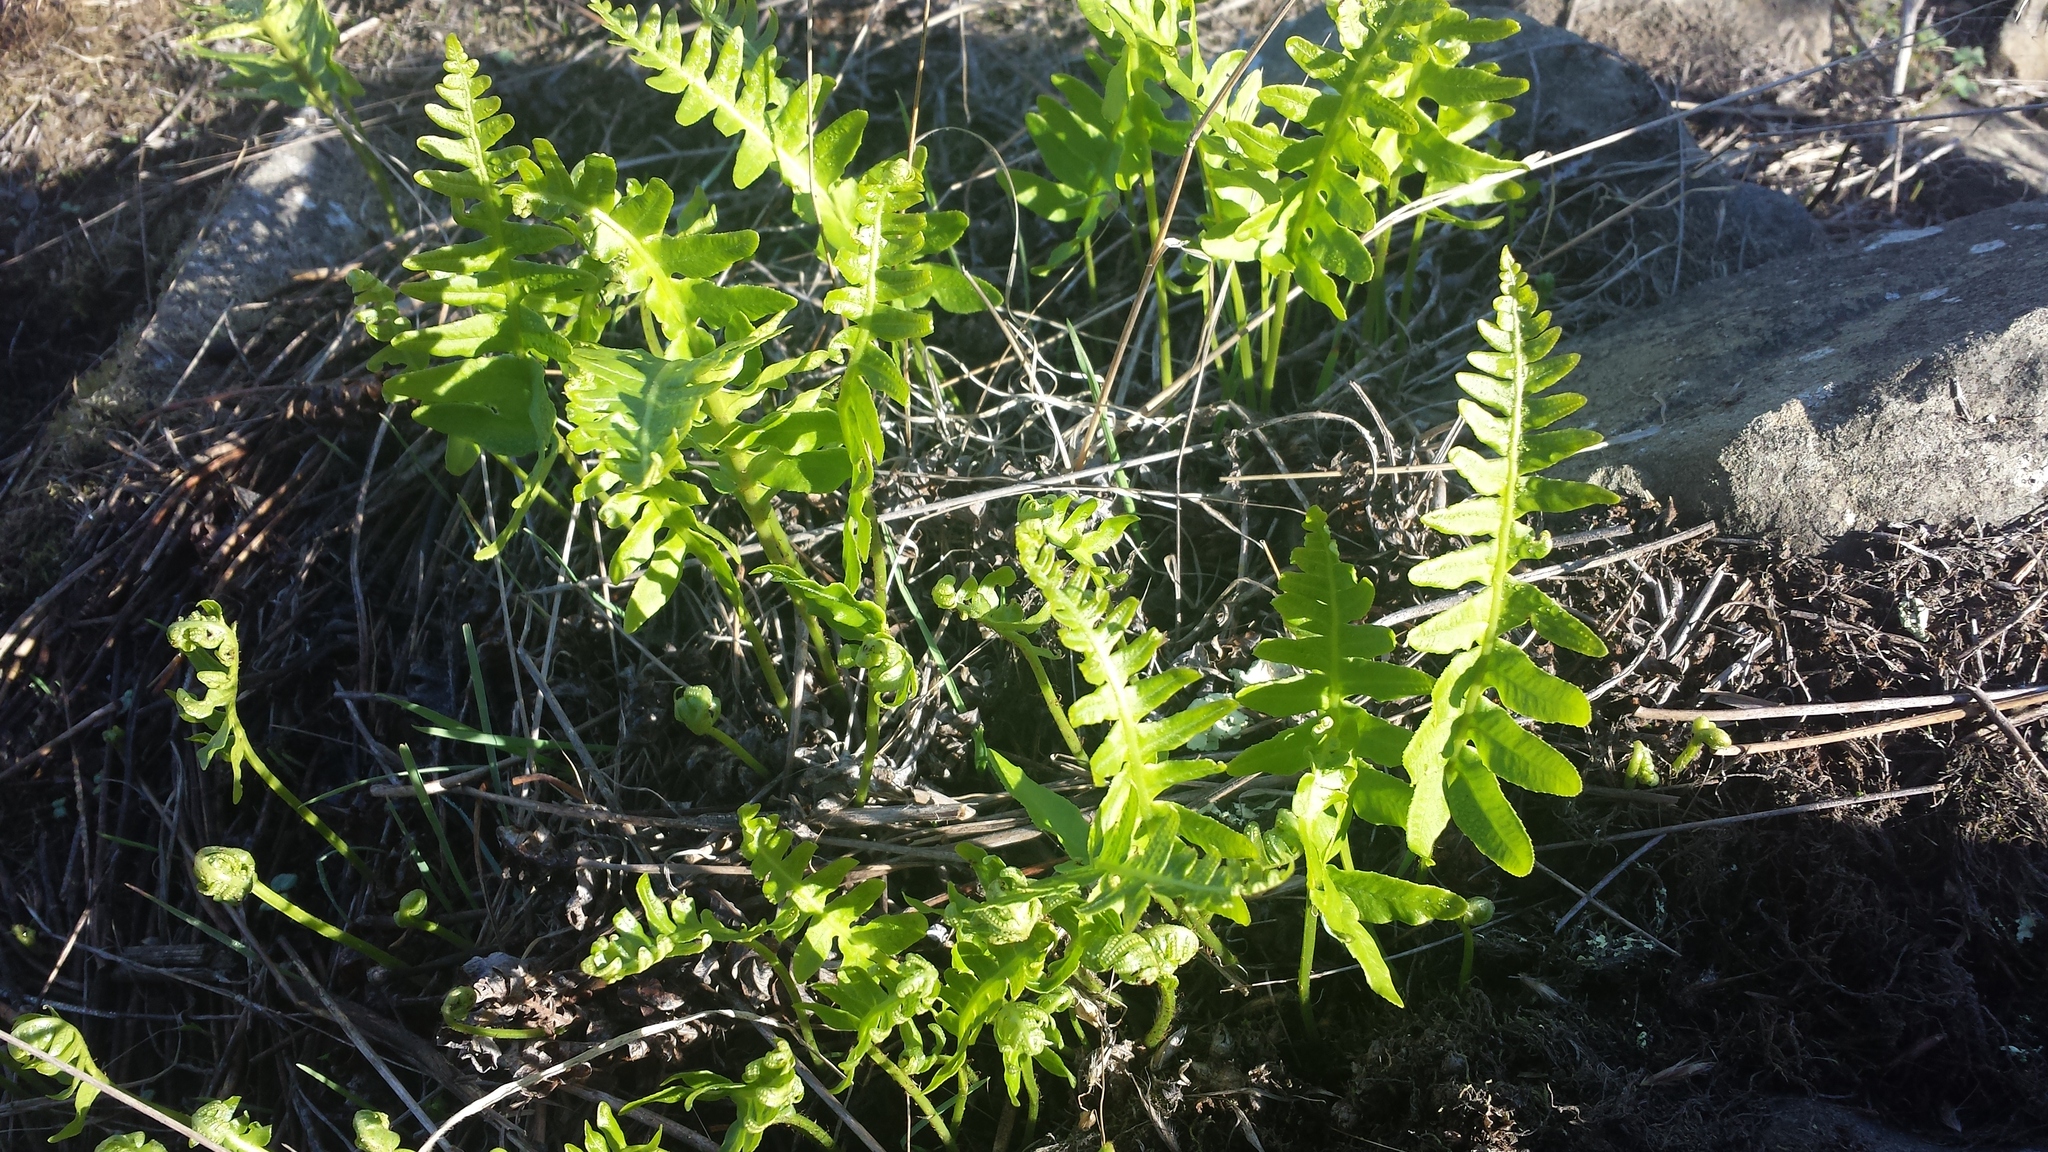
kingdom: Plantae
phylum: Tracheophyta
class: Polypodiopsida
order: Polypodiales
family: Polypodiaceae
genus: Polypodium
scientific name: Polypodium californicum
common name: California polypody
